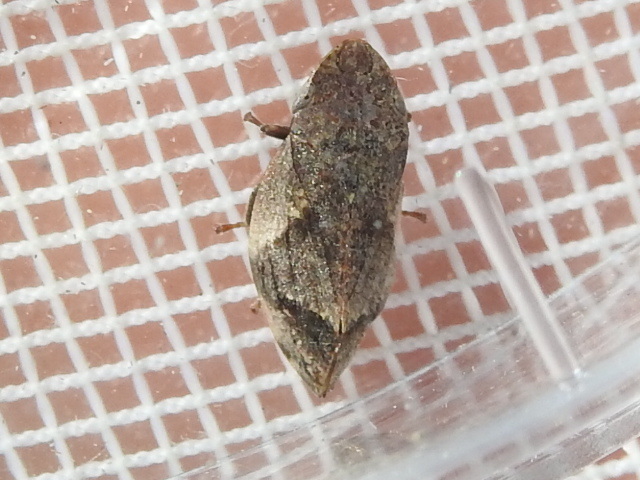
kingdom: Animalia
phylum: Arthropoda
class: Insecta
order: Hemiptera
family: Aphrophoridae
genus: Lepyronia
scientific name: Lepyronia quadrangularis
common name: Diamond-backed spittlebug
